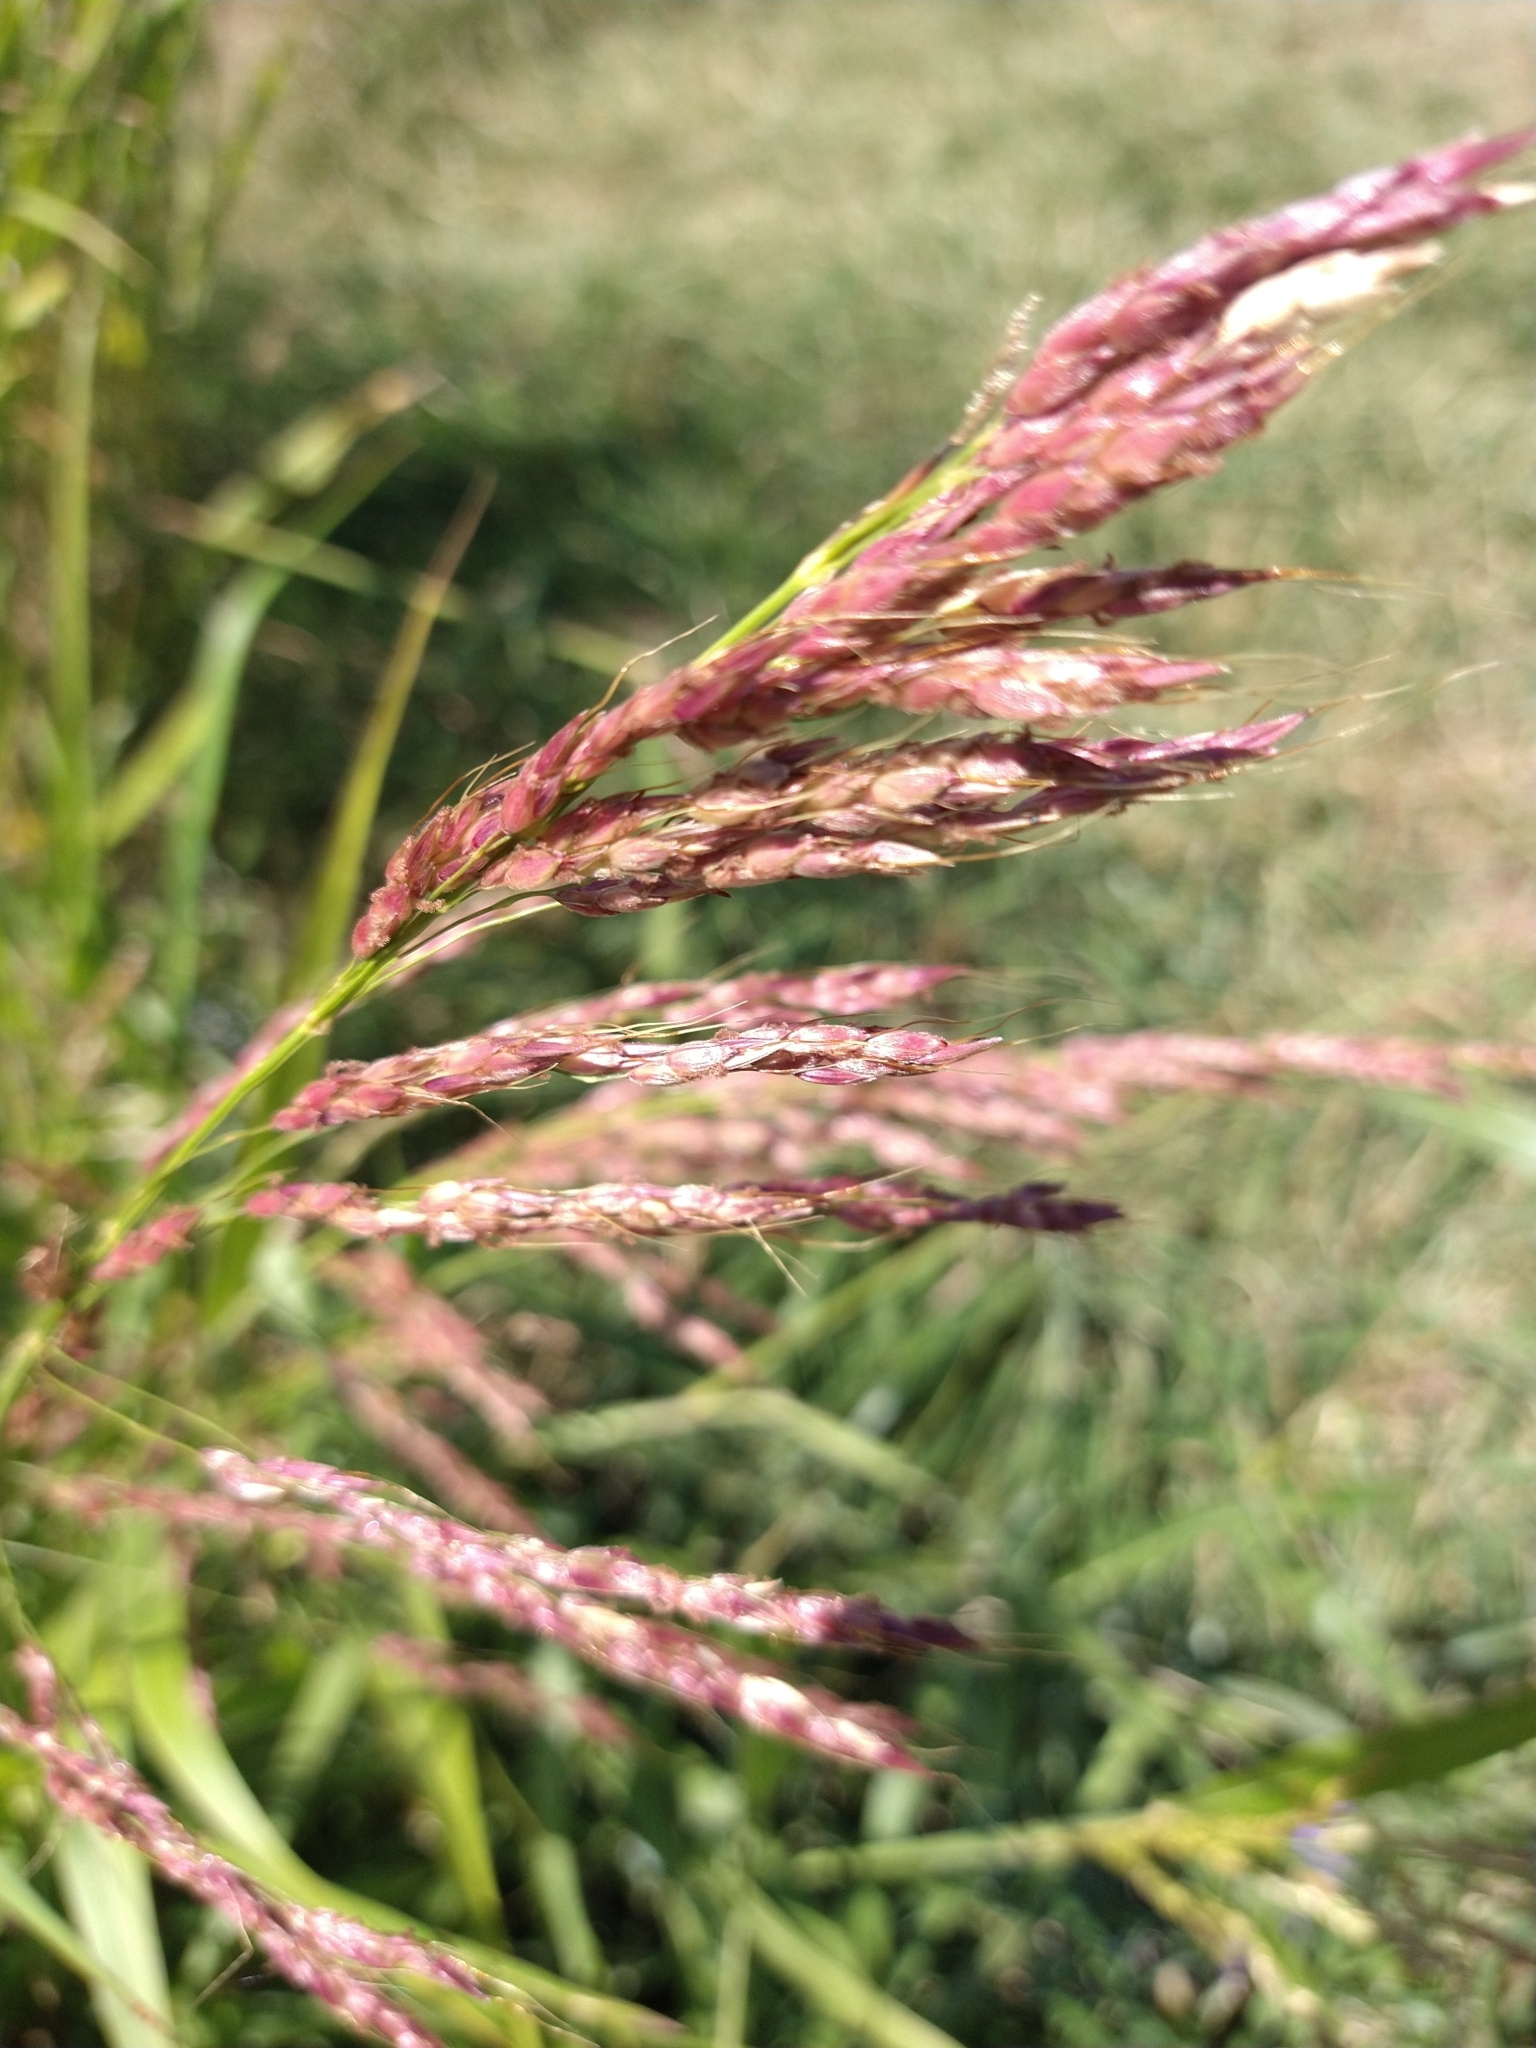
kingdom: Plantae
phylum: Tracheophyta
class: Liliopsida
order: Poales
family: Poaceae
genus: Sorghum
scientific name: Sorghum halepense
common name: Johnson-grass
